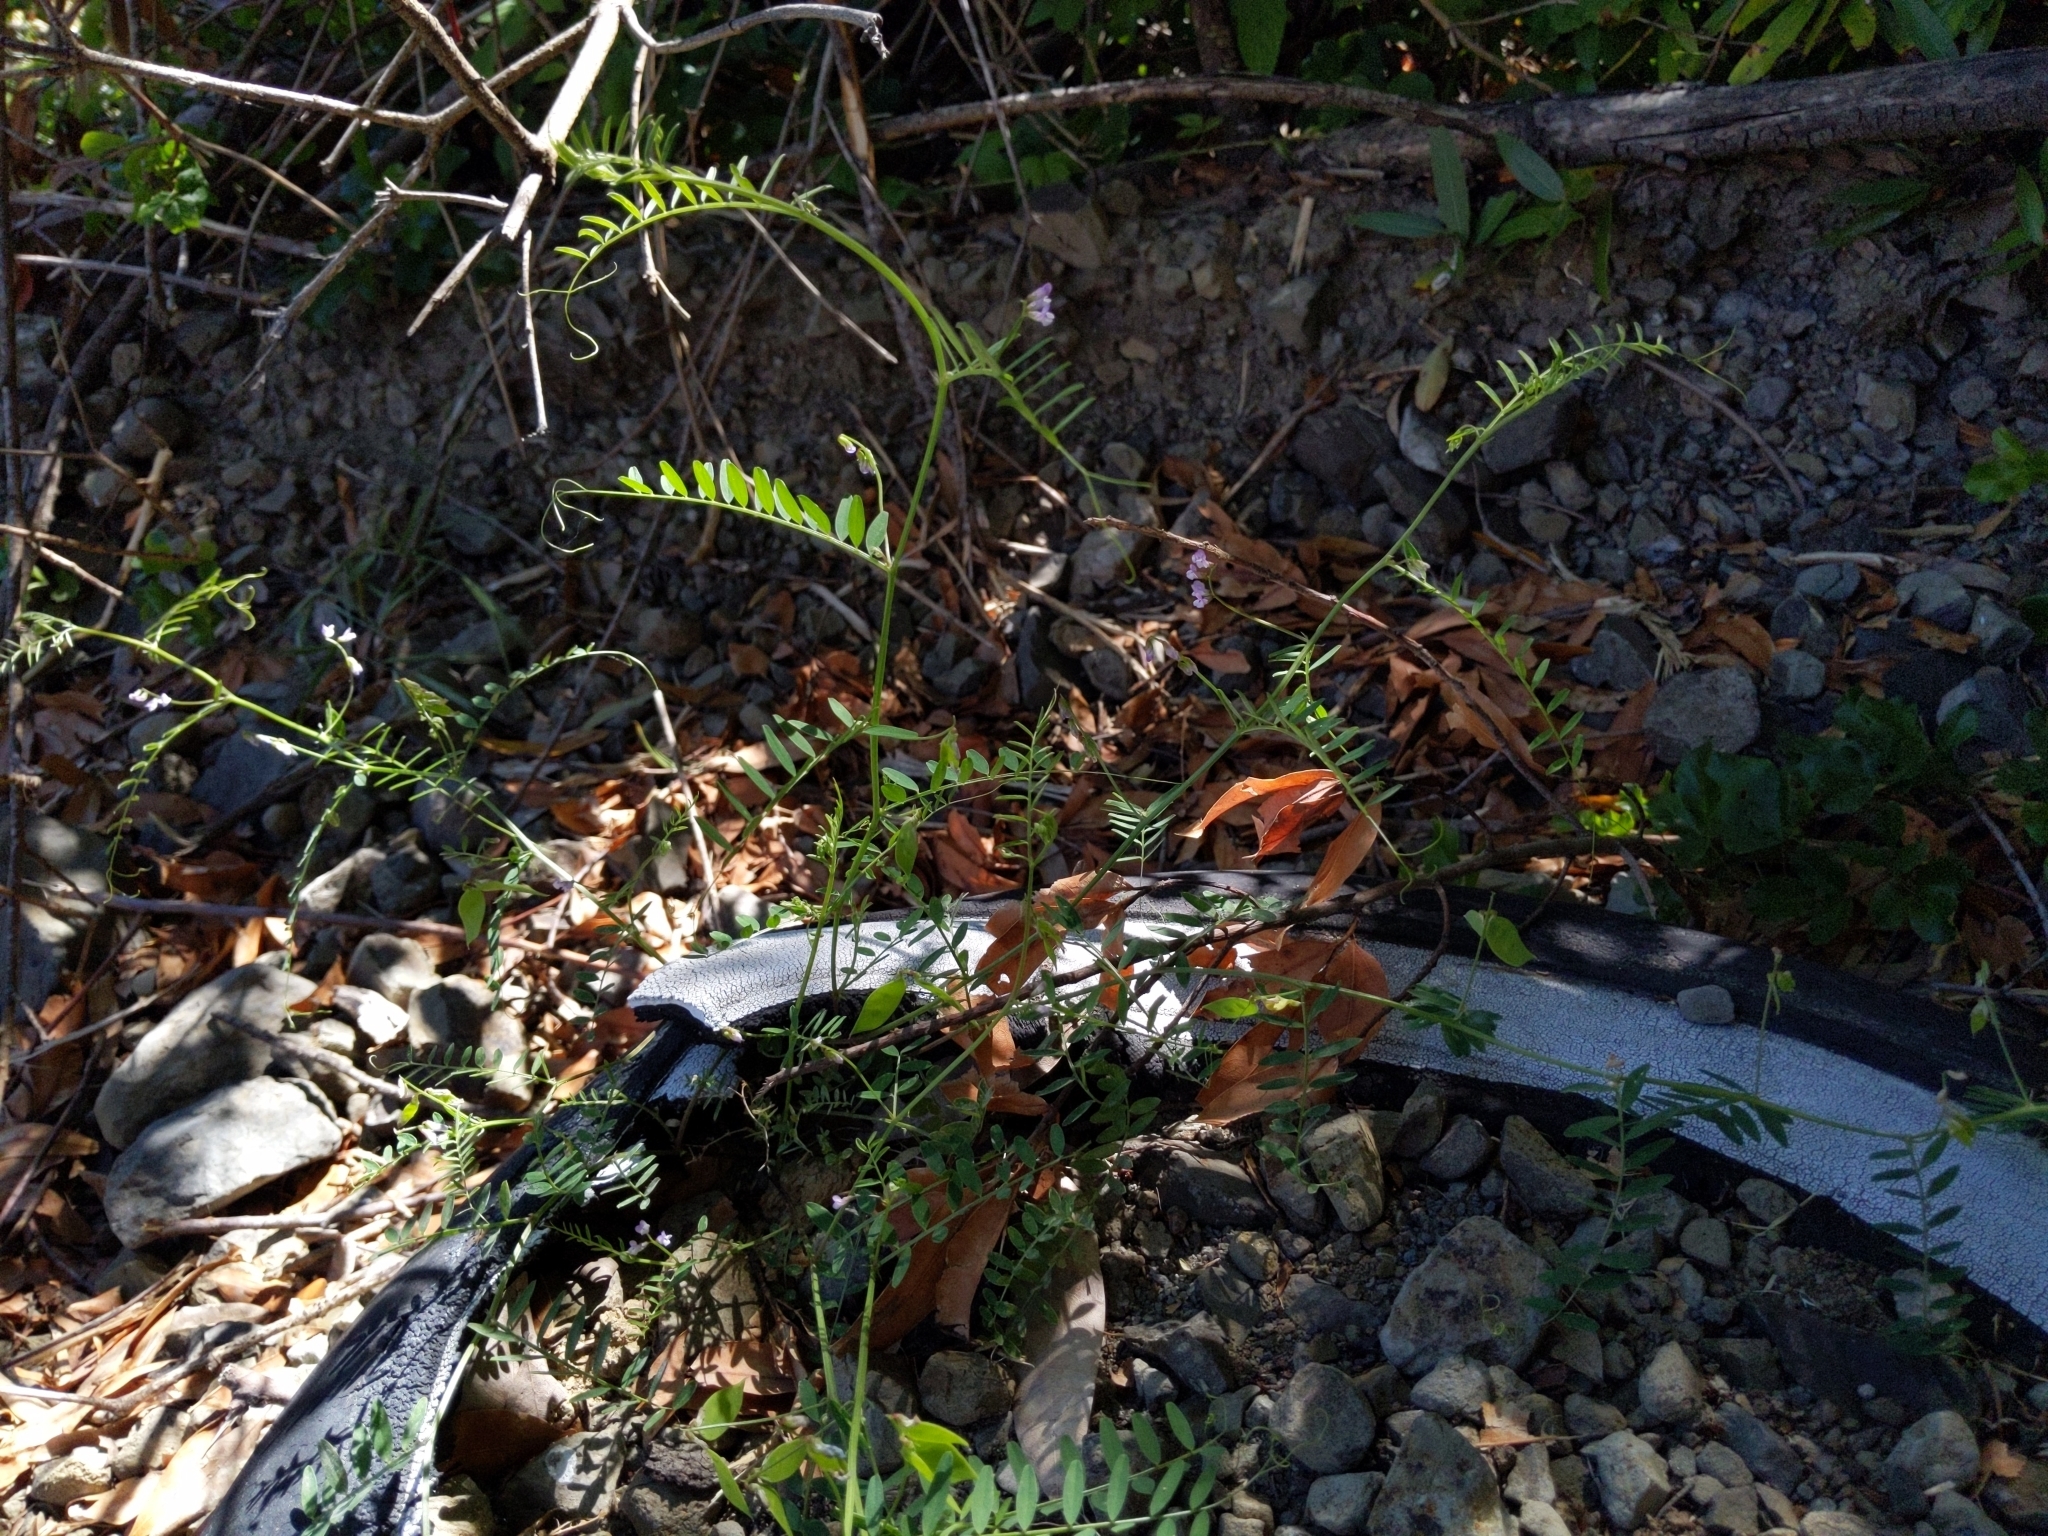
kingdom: Plantae
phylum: Tracheophyta
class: Magnoliopsida
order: Fabales
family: Fabaceae
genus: Vicia
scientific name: Vicia disperma
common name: European vetch
